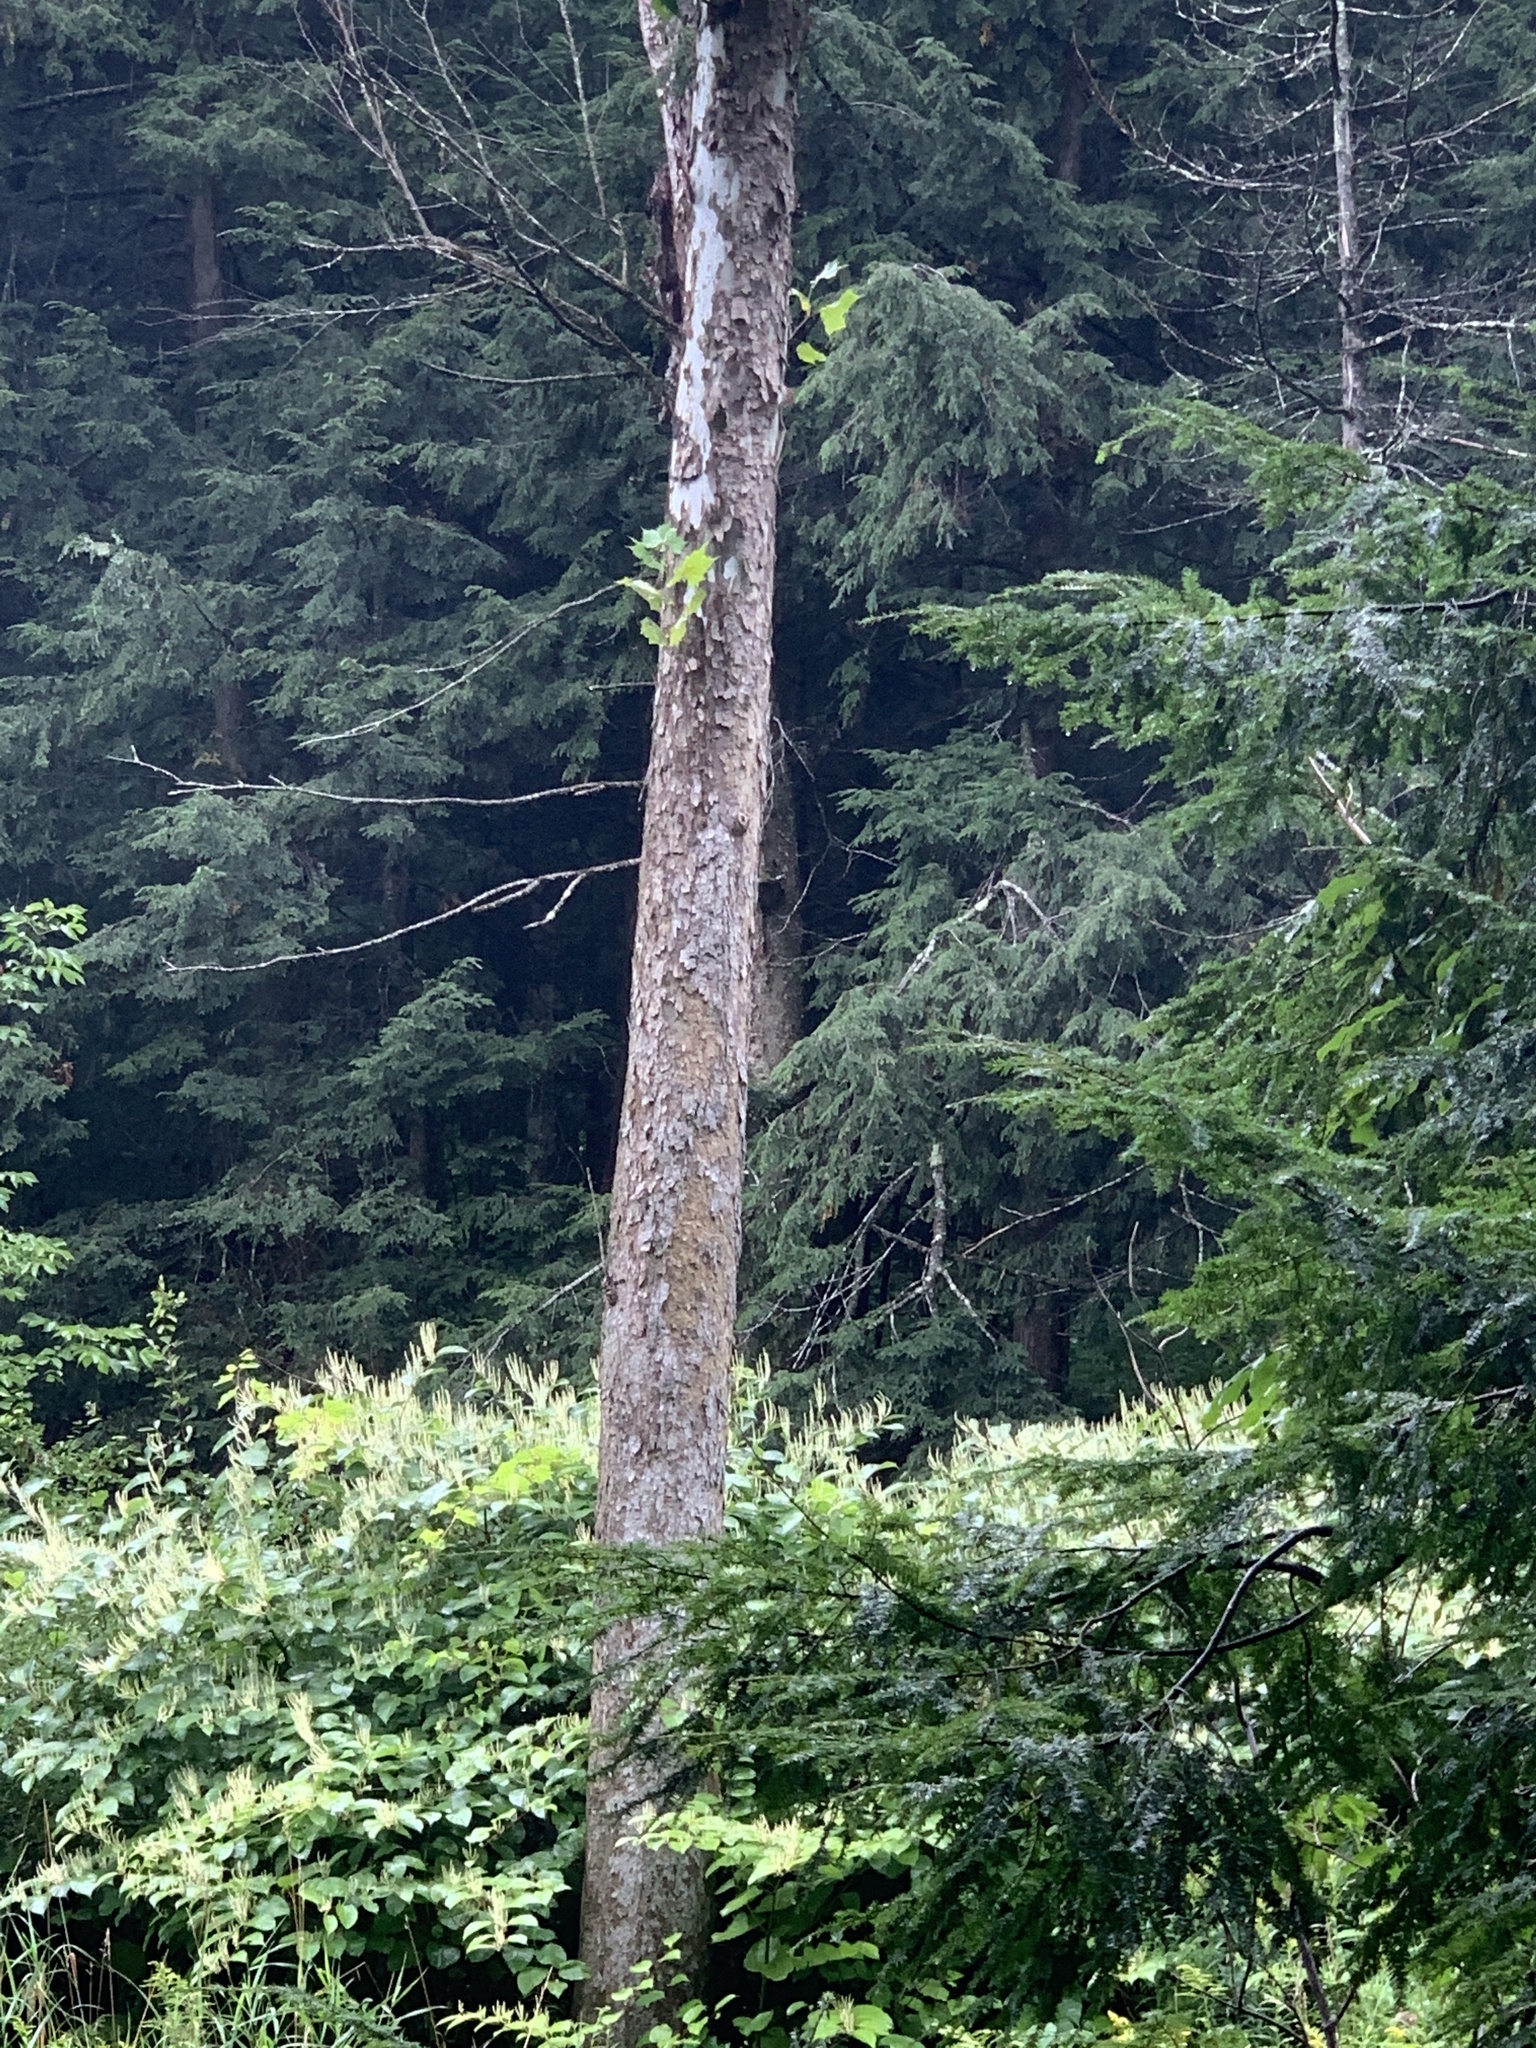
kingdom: Plantae
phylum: Tracheophyta
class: Magnoliopsida
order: Proteales
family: Platanaceae
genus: Platanus
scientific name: Platanus occidentalis
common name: American sycamore
